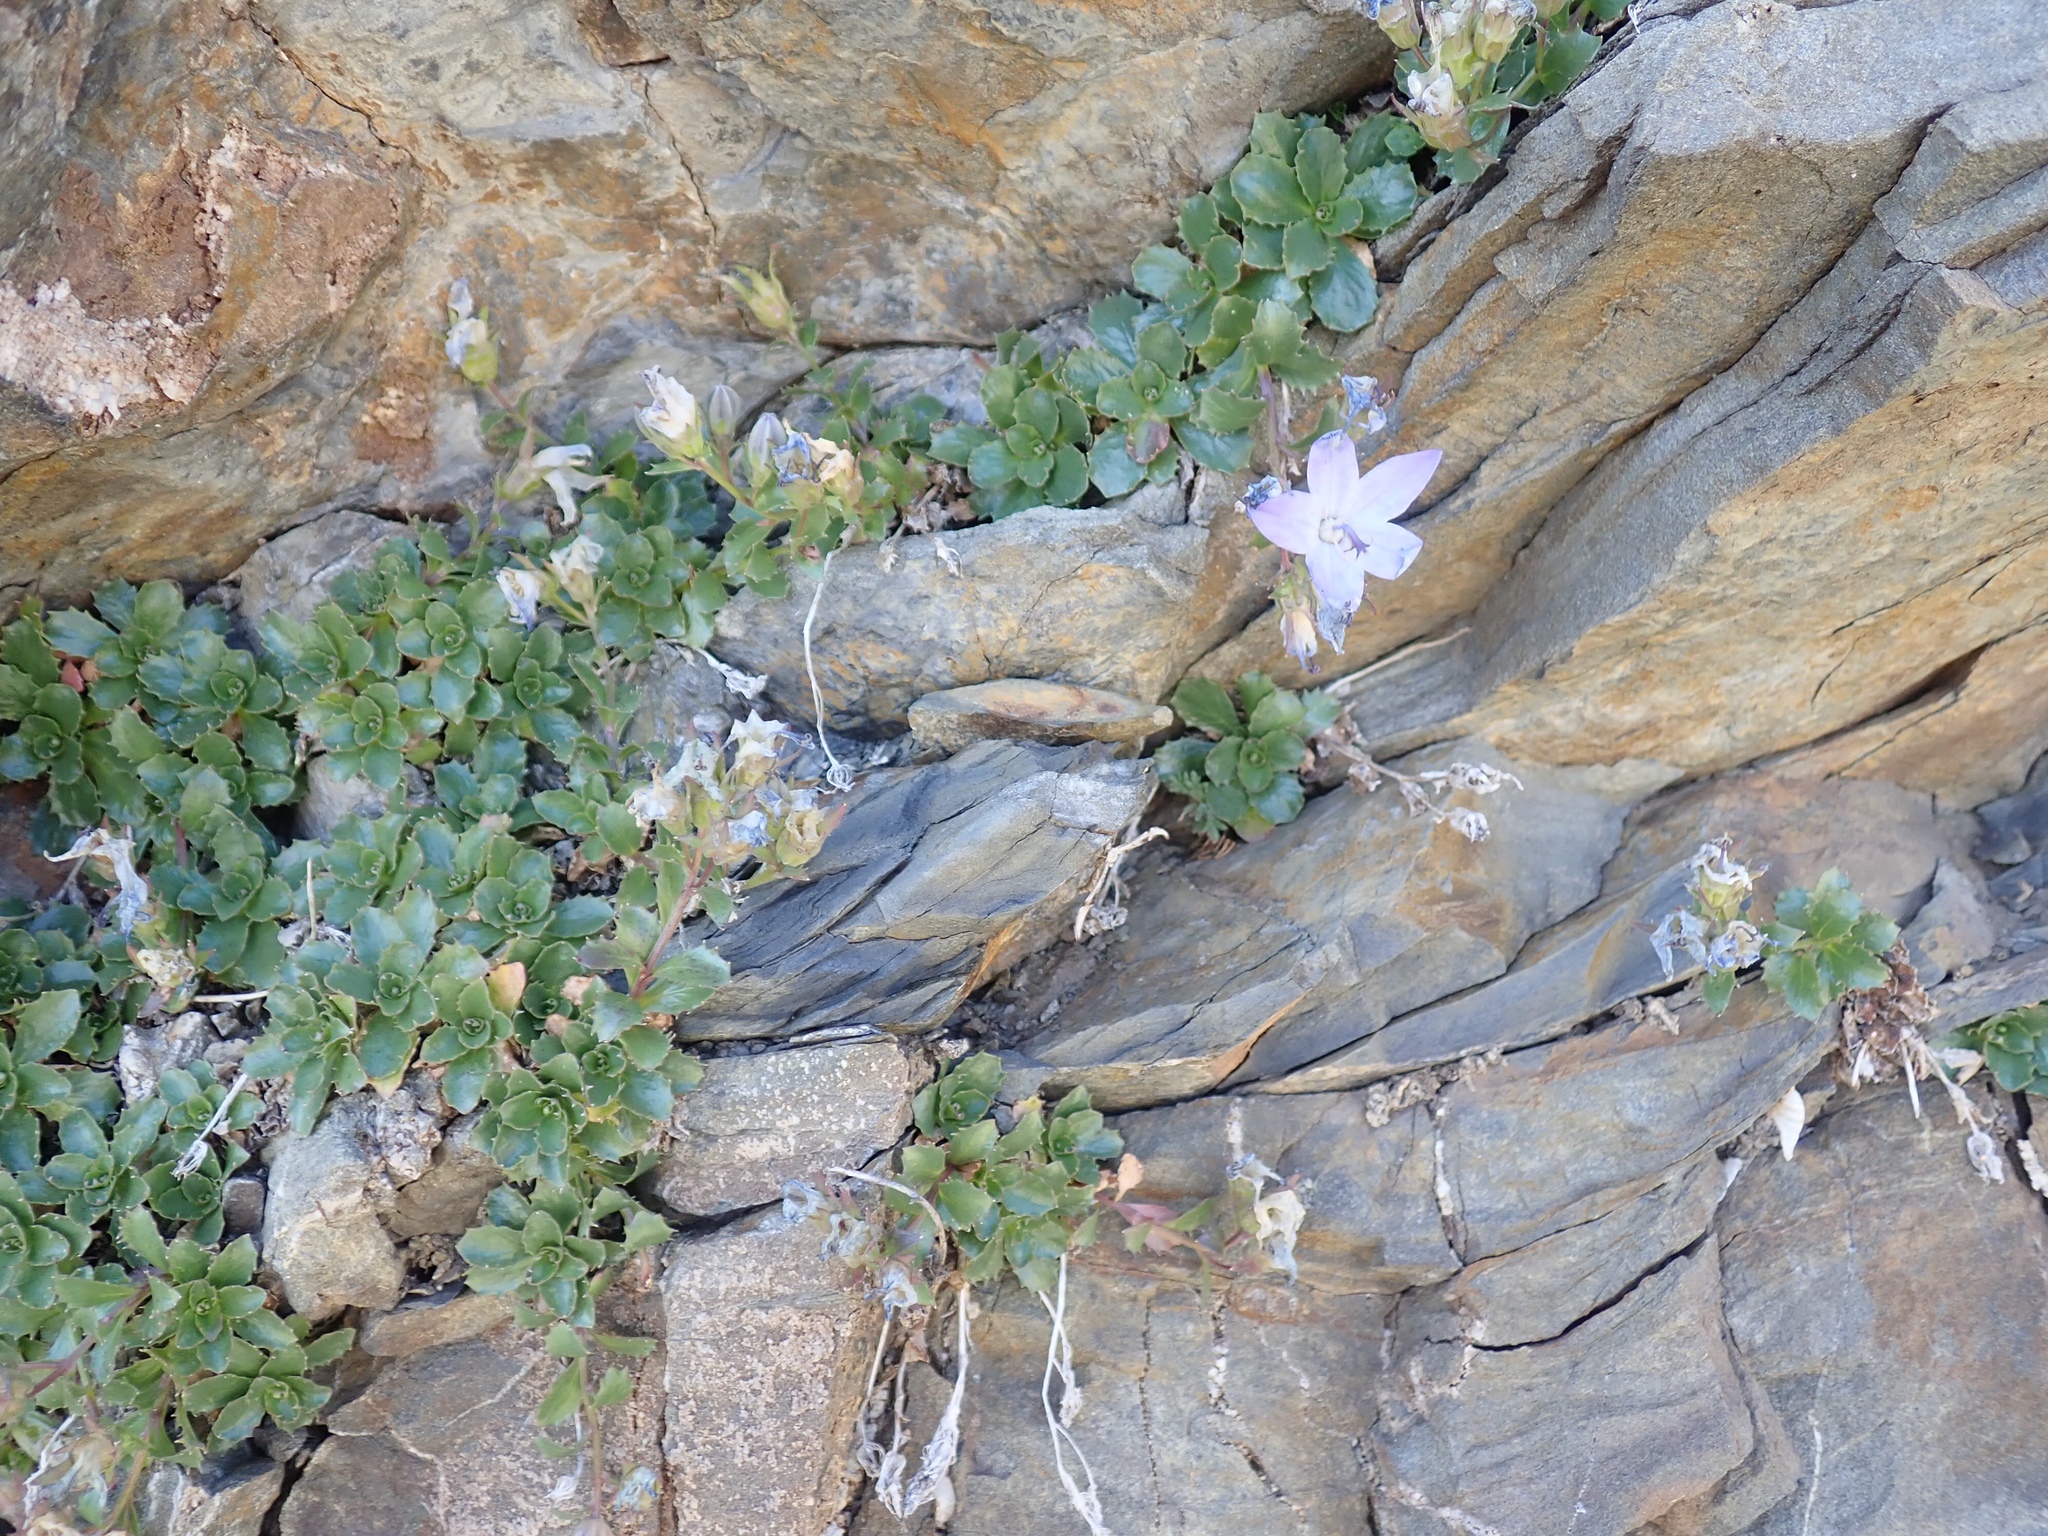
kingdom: Plantae
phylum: Tracheophyta
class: Magnoliopsida
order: Asterales
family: Campanulaceae
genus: Campanula
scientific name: Campanula piperi
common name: Olympic bellflower
